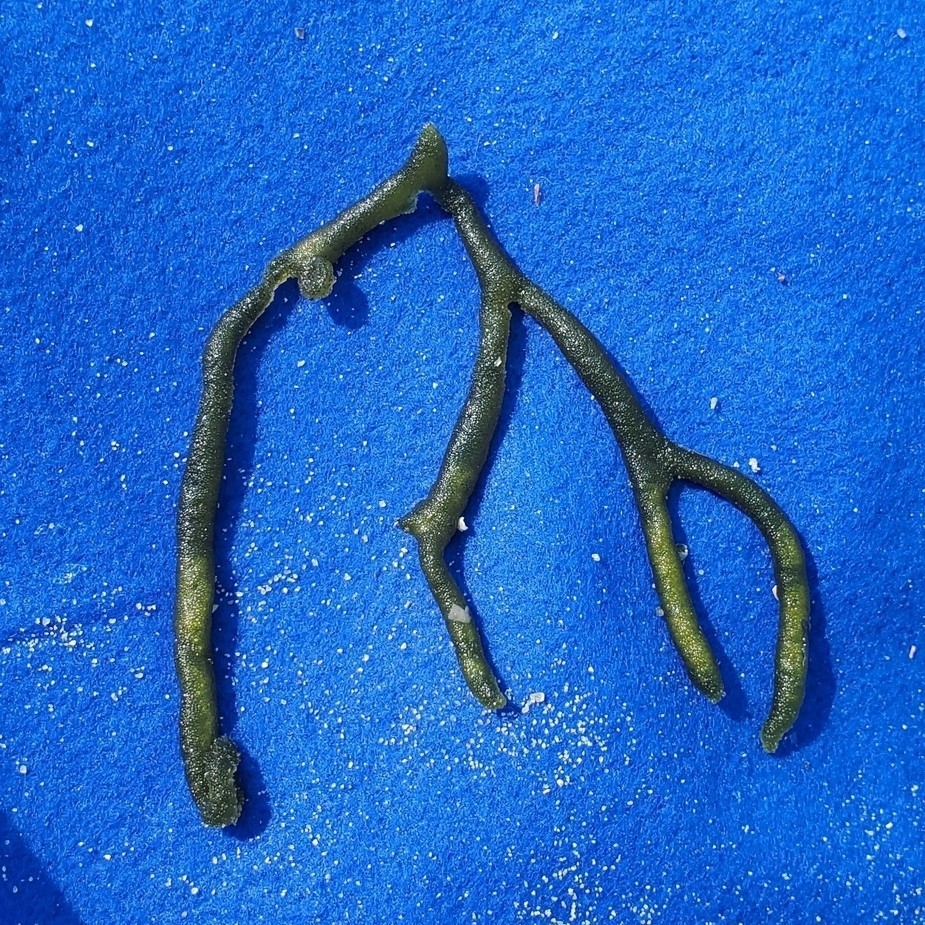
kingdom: Plantae
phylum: Chlorophyta
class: Ulvophyceae
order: Bryopsidales
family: Codiaceae
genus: Codium
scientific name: Codium fragile
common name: Dead man's fingers
